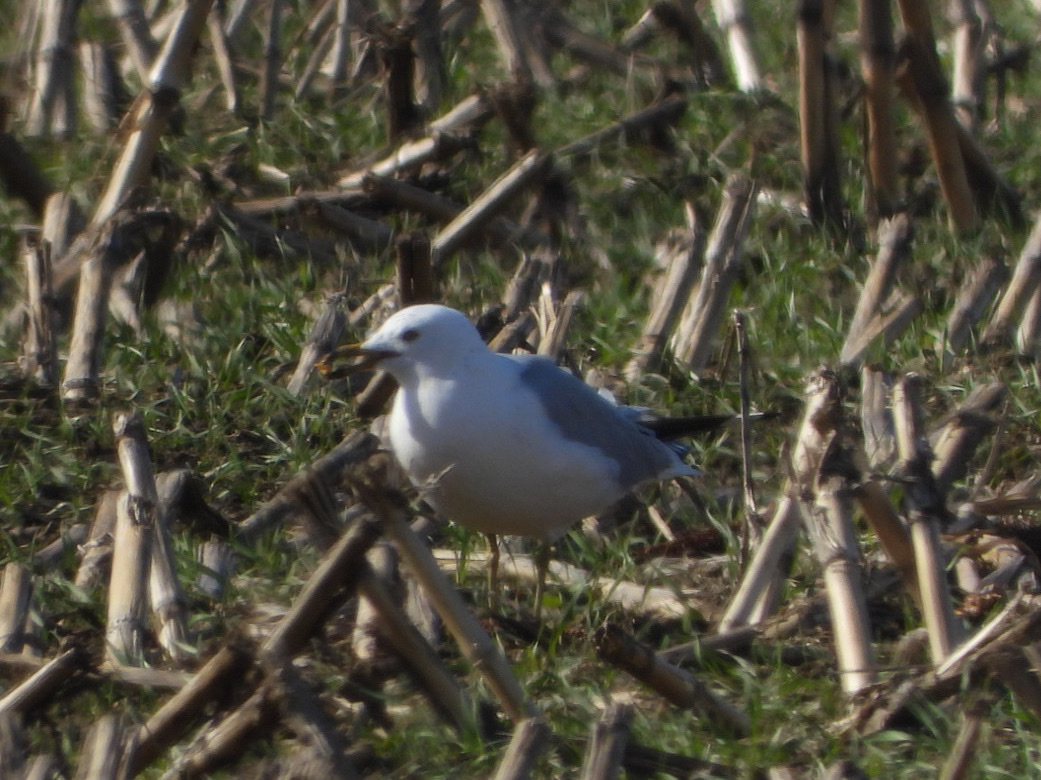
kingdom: Animalia
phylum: Chordata
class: Aves
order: Charadriiformes
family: Laridae
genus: Larus
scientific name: Larus delawarensis
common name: Ring-billed gull
